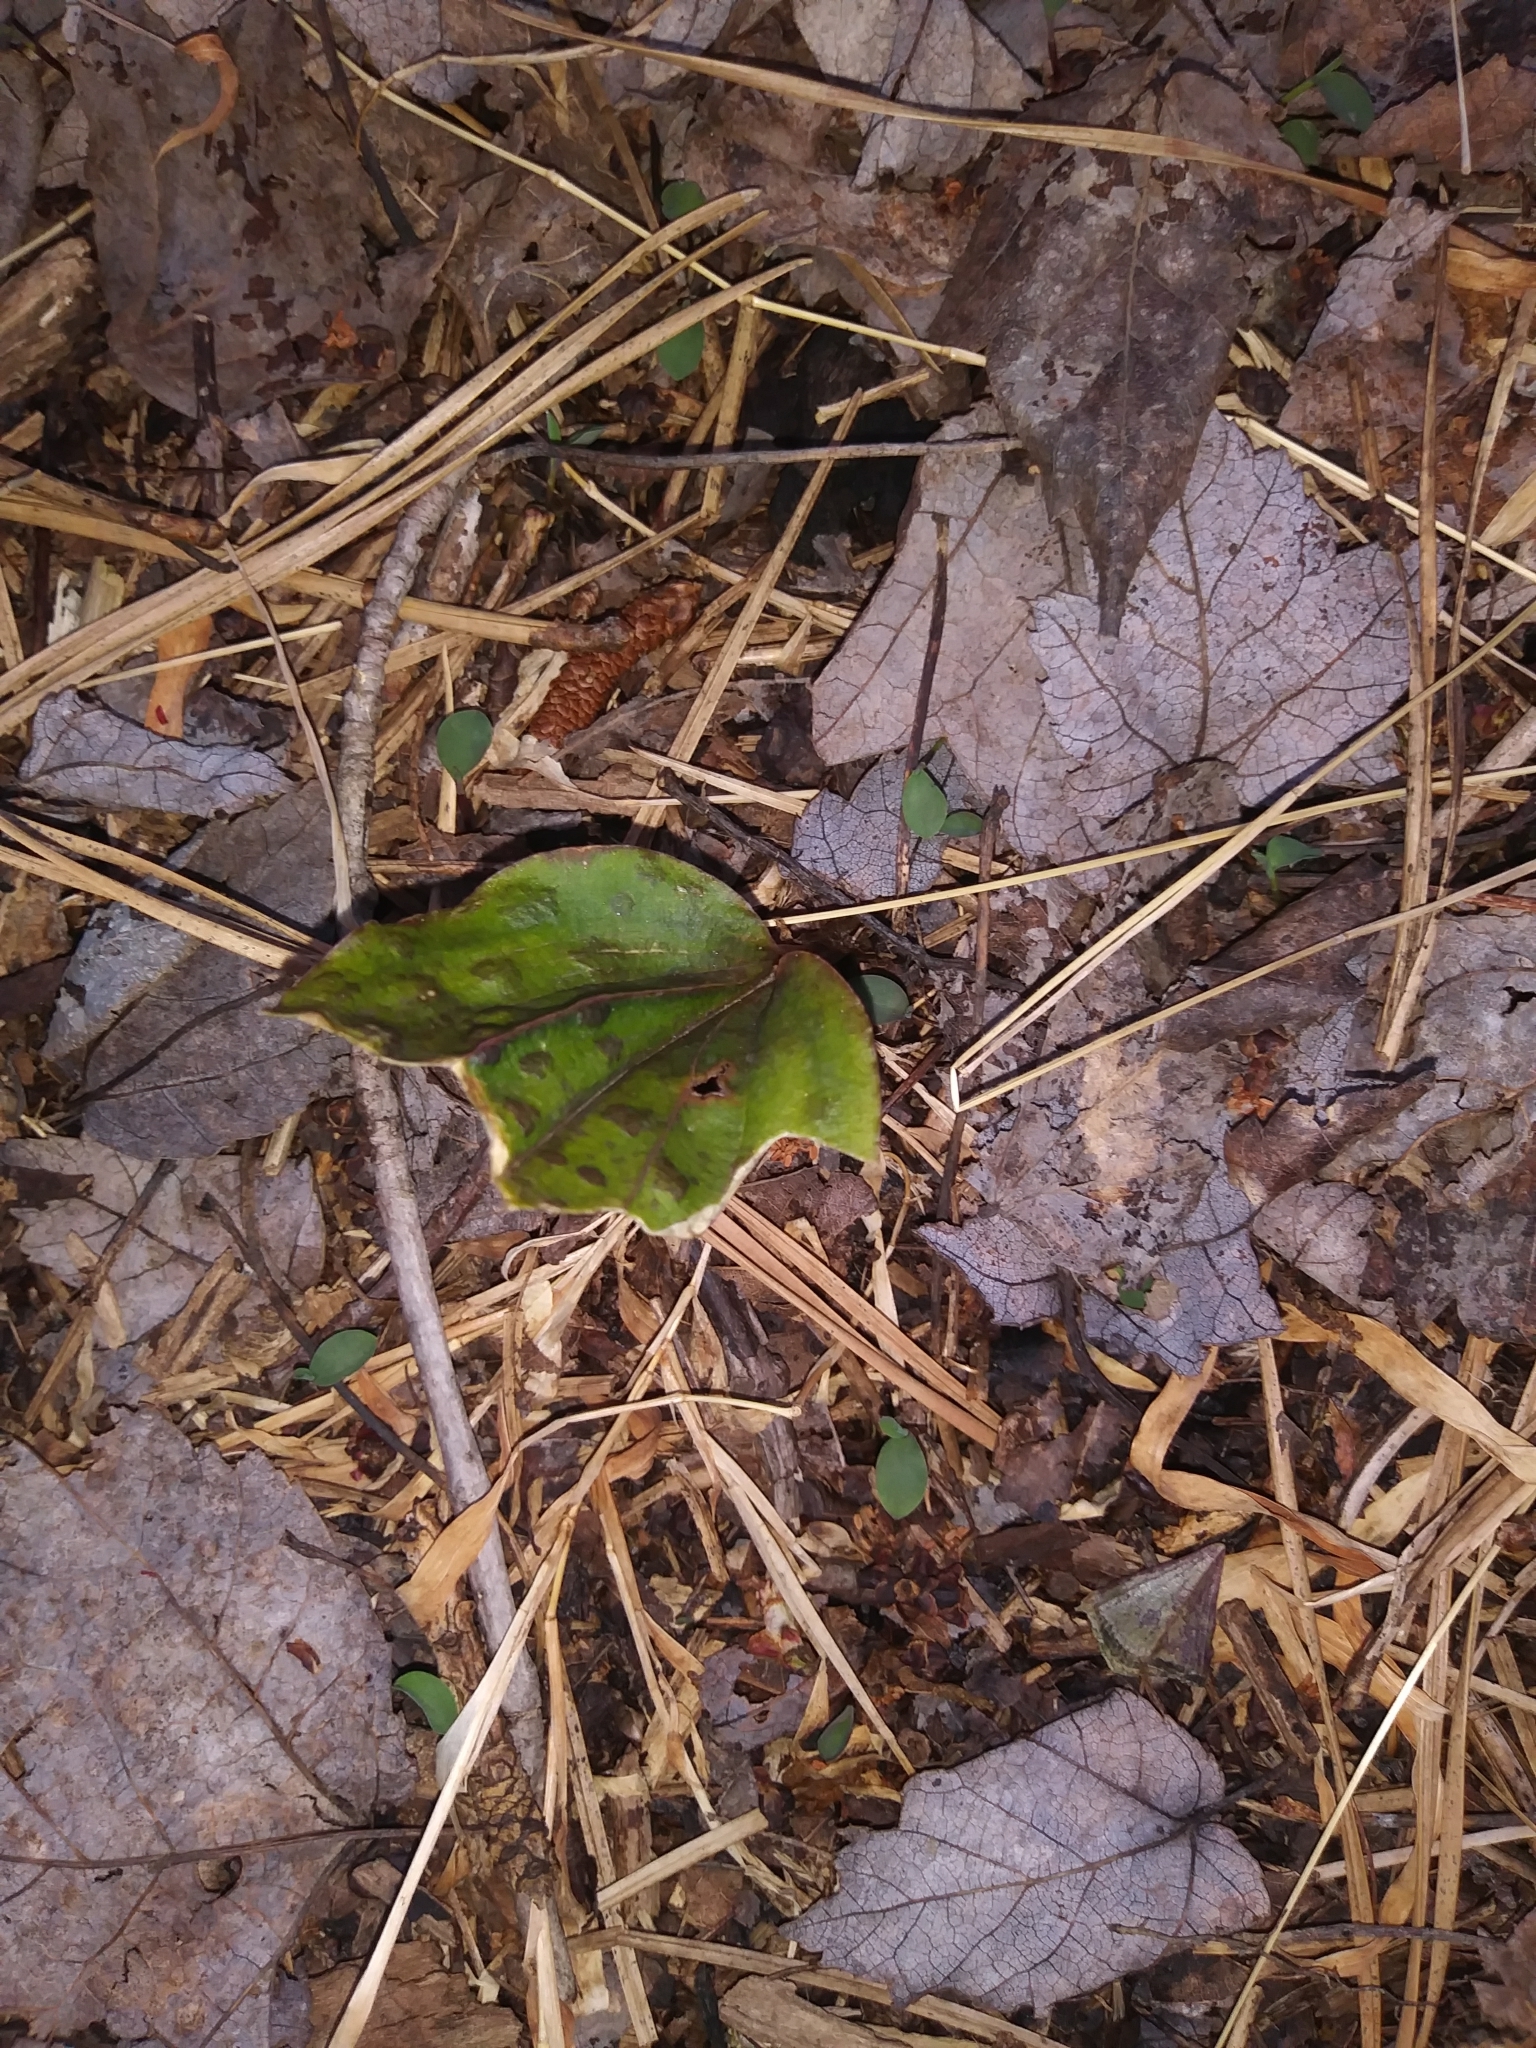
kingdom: Plantae
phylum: Tracheophyta
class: Liliopsida
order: Asparagales
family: Orchidaceae
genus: Tipularia
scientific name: Tipularia discolor
